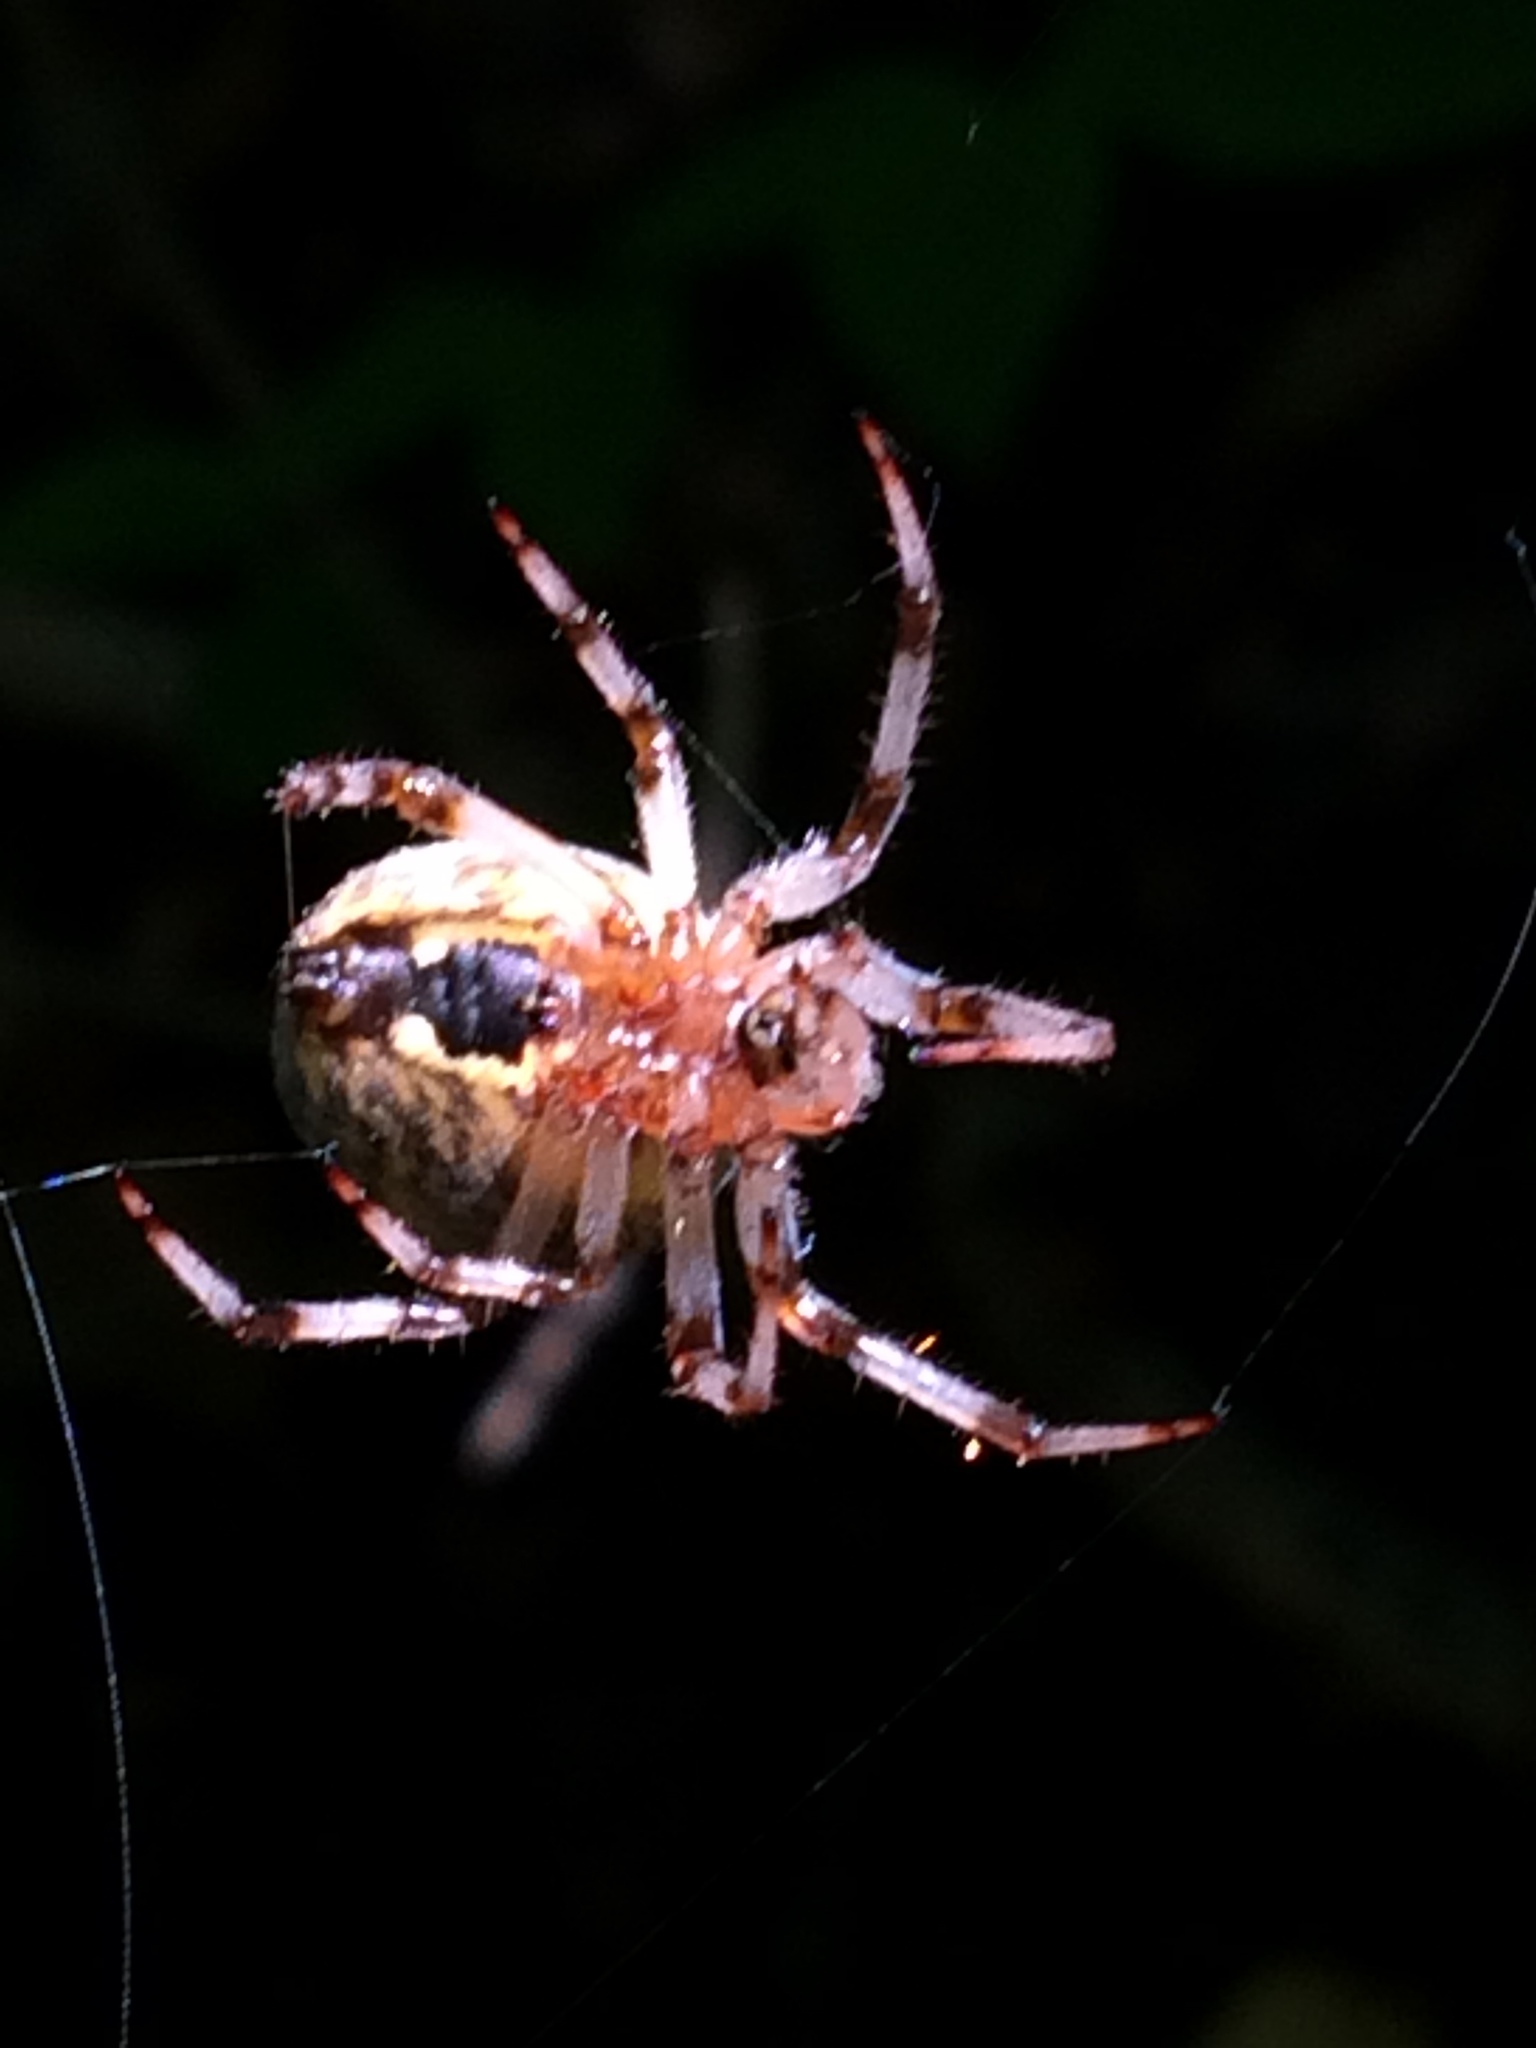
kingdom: Animalia
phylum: Arthropoda
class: Arachnida
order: Araneae
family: Araneidae
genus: Araneus
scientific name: Araneus marmoreus
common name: Marbled orbweaver
